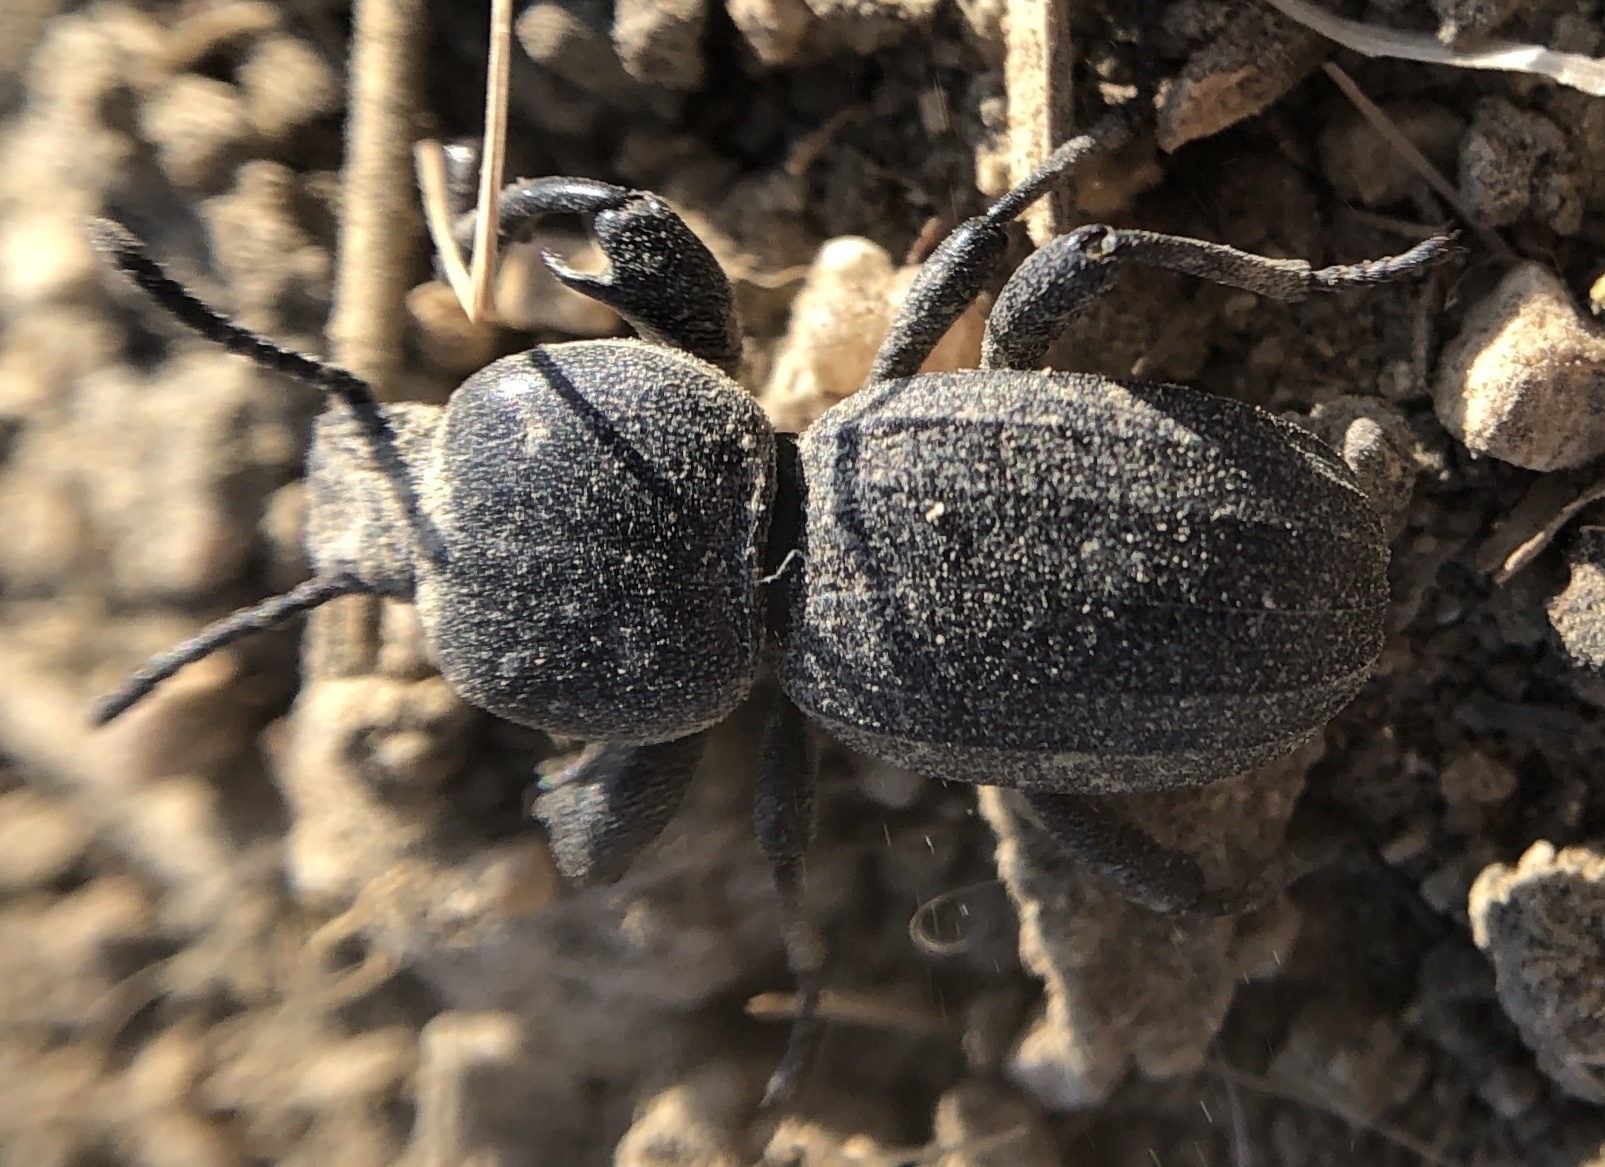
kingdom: Animalia
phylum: Arthropoda
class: Insecta
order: Coleoptera
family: Tenebrionidae
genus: Scaurus
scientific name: Scaurus uncinus
